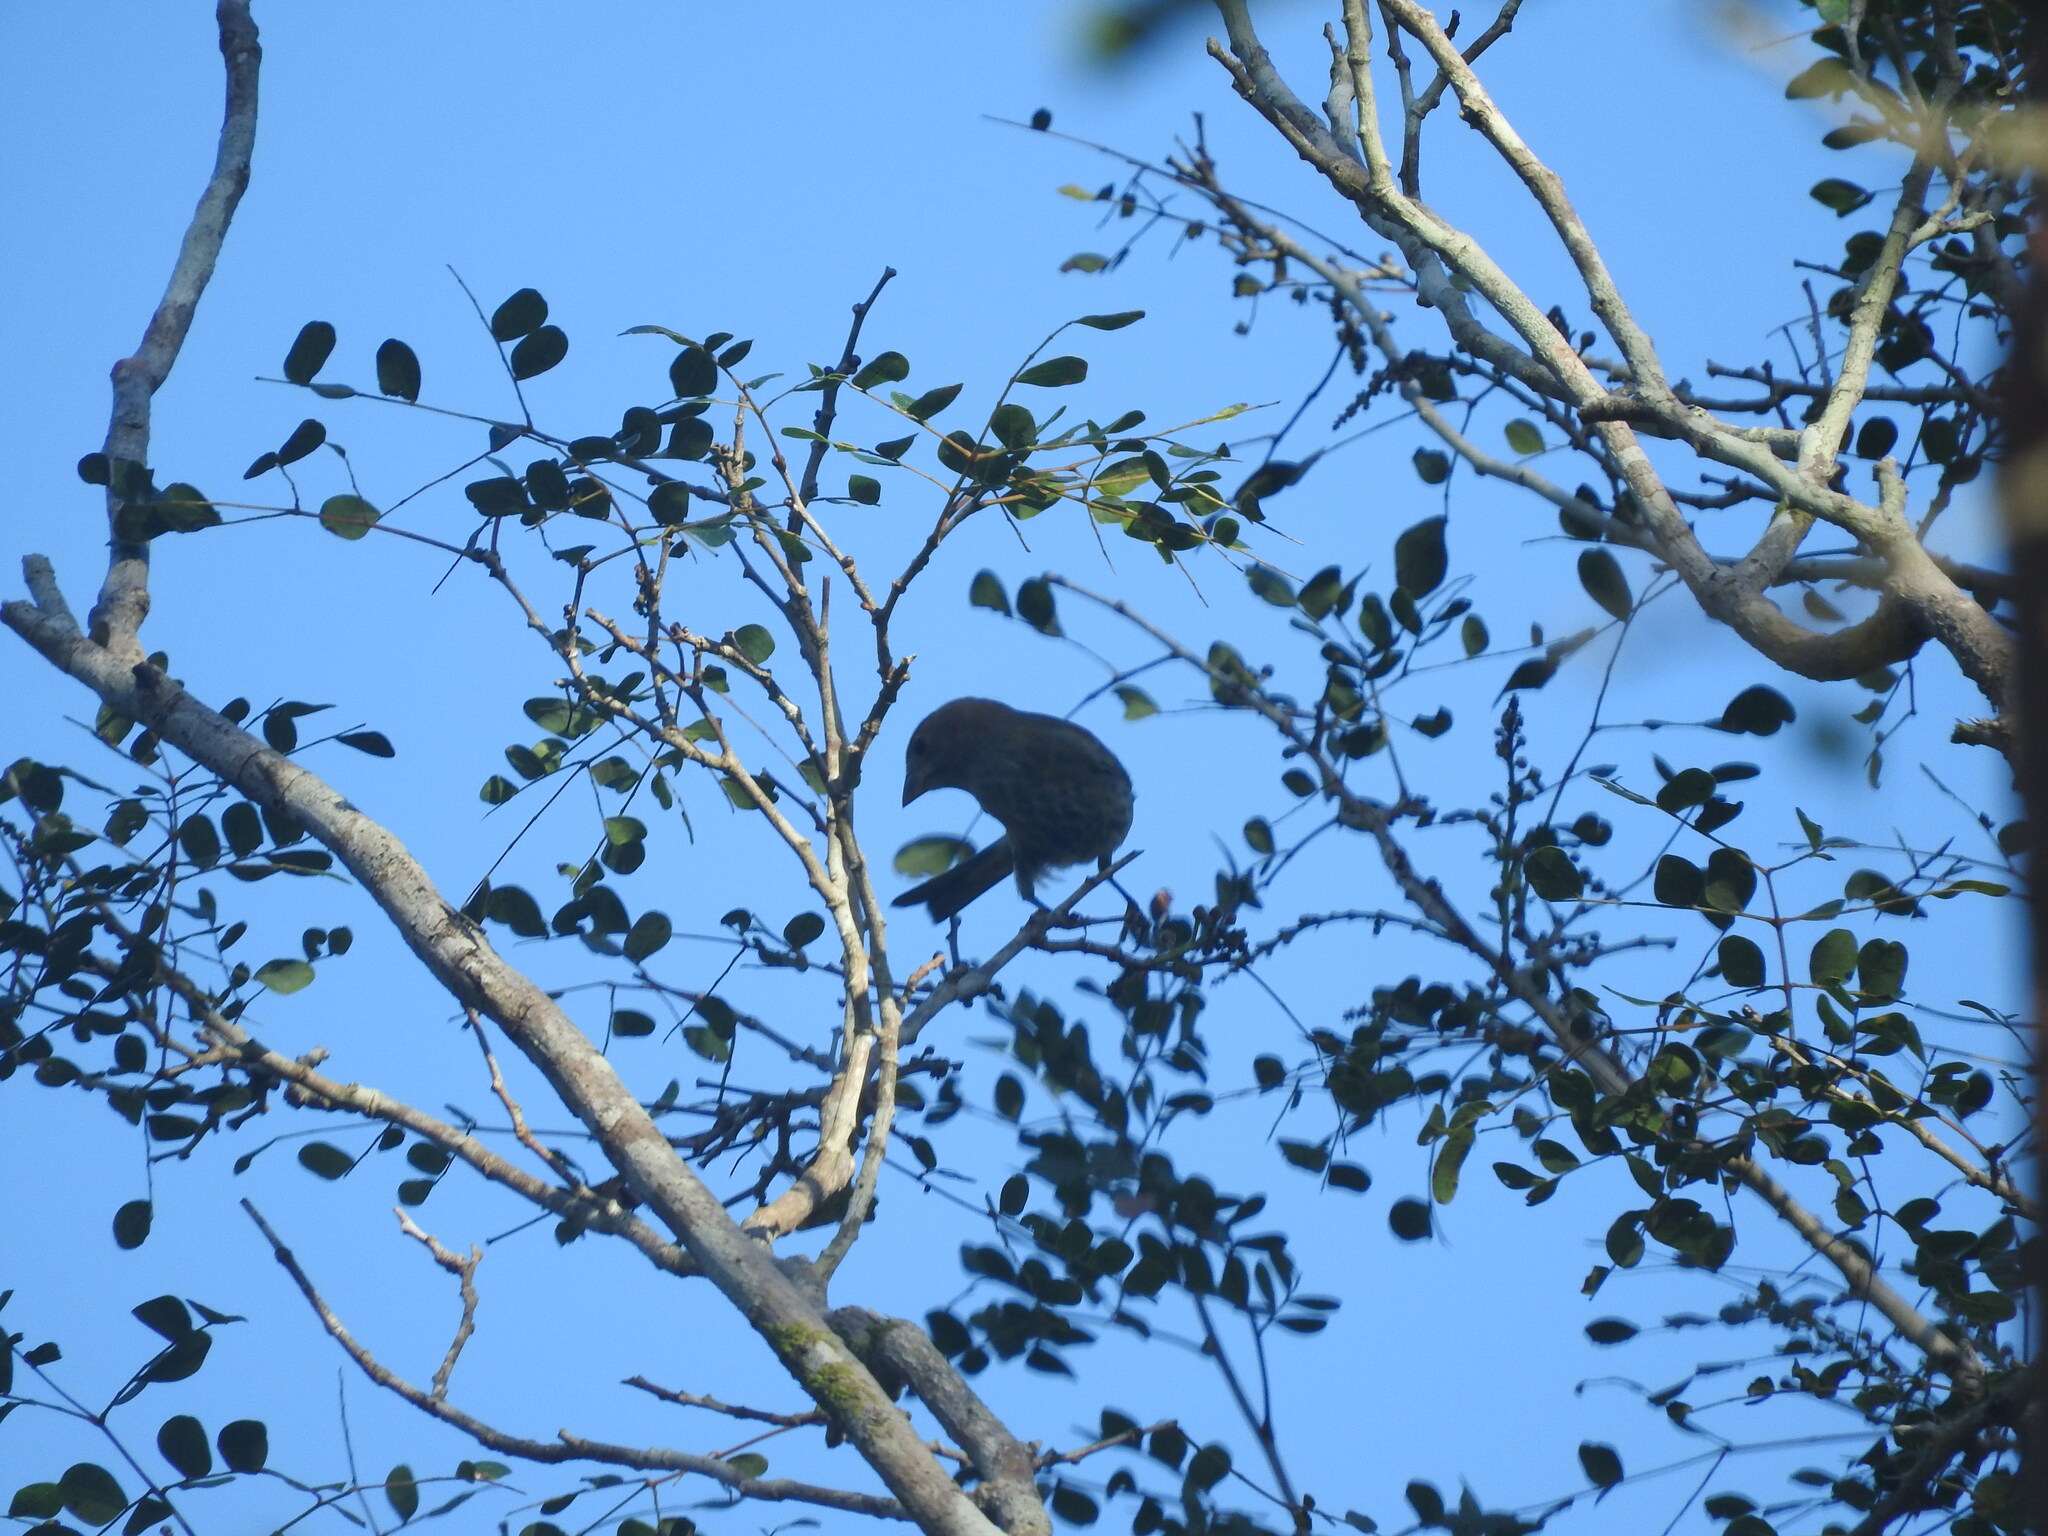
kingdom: Animalia
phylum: Chordata
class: Aves
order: Passeriformes
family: Thraupidae
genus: Volatinia
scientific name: Volatinia jacarina
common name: Blue-black grassquit
